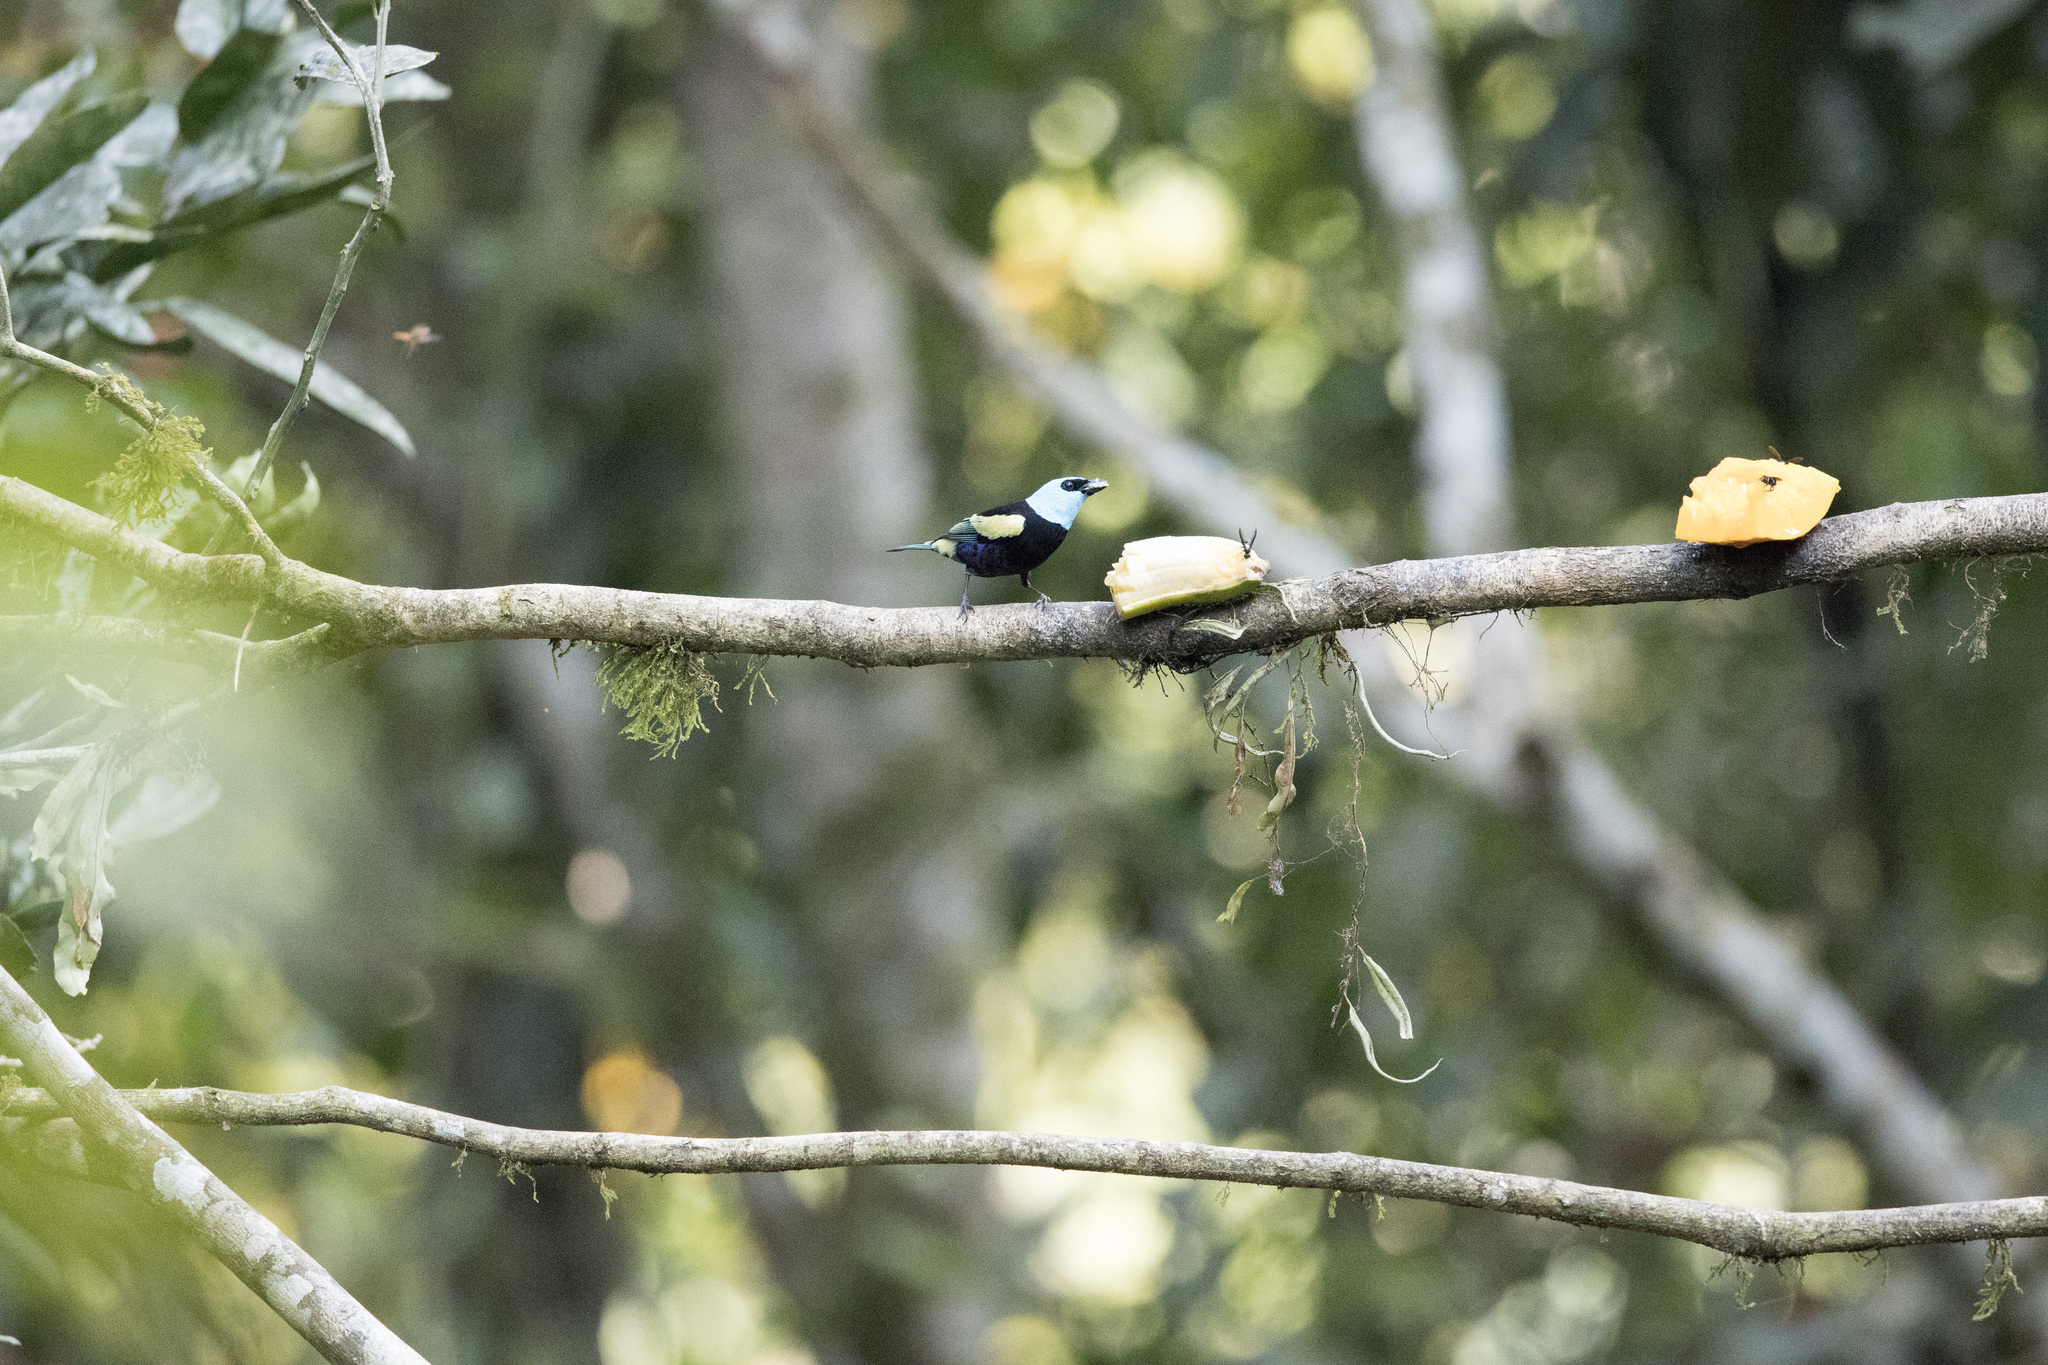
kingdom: Animalia
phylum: Chordata
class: Aves
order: Passeriformes
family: Thraupidae
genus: Stilpnia
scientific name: Stilpnia cyanicollis
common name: Blue-necked tanager
